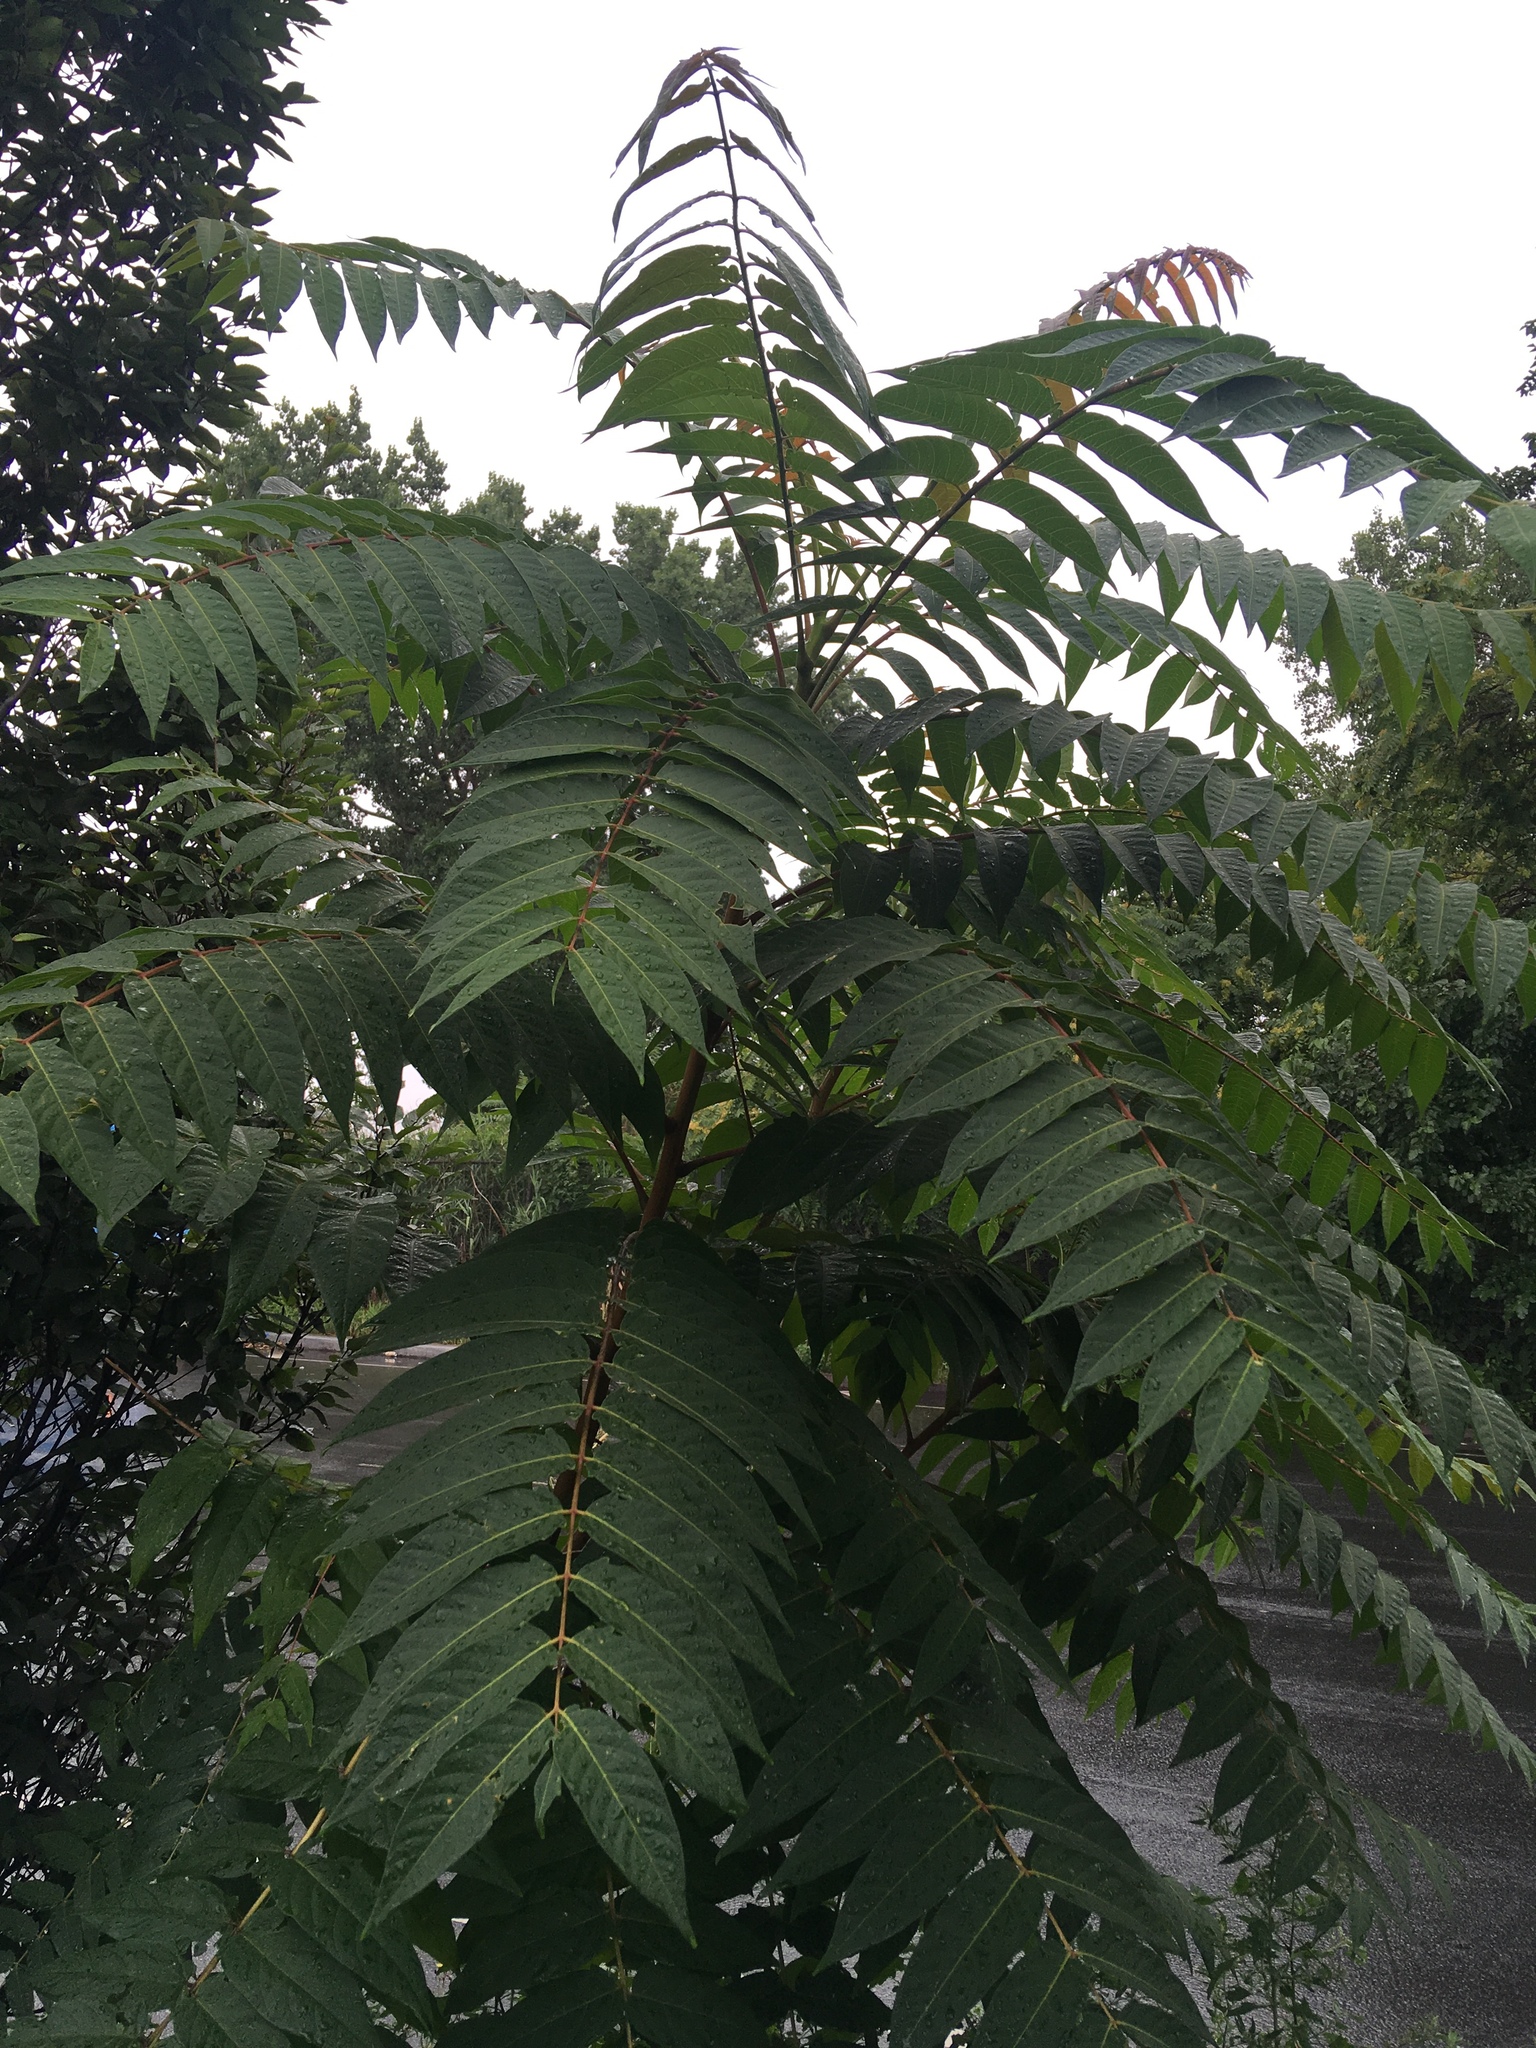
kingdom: Plantae
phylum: Tracheophyta
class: Magnoliopsida
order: Sapindales
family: Simaroubaceae
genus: Ailanthus
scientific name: Ailanthus altissima
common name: Tree-of-heaven
